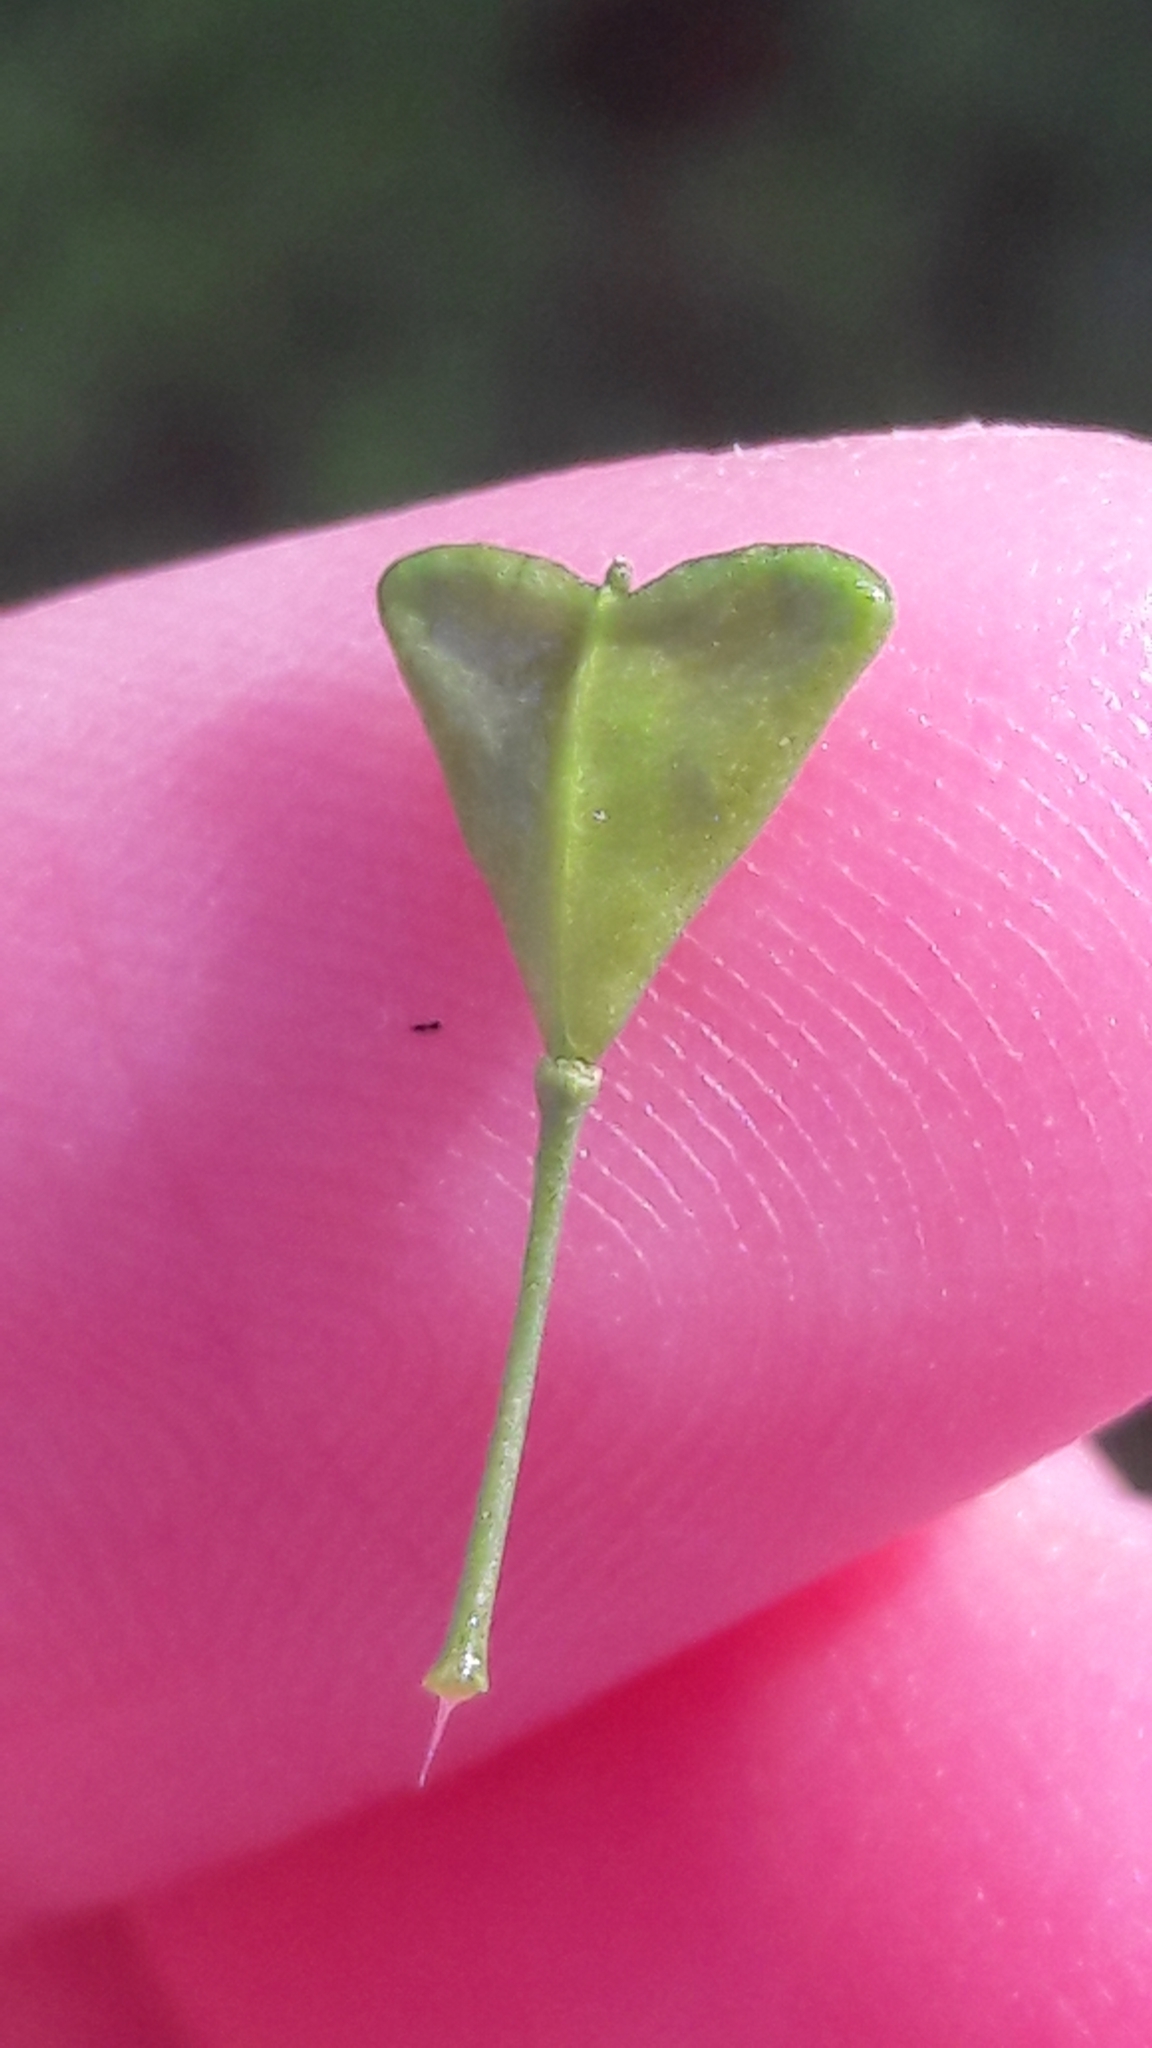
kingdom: Plantae
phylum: Tracheophyta
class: Magnoliopsida
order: Brassicales
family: Brassicaceae
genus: Capsella
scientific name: Capsella bursa-pastoris
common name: Shepherd's purse
